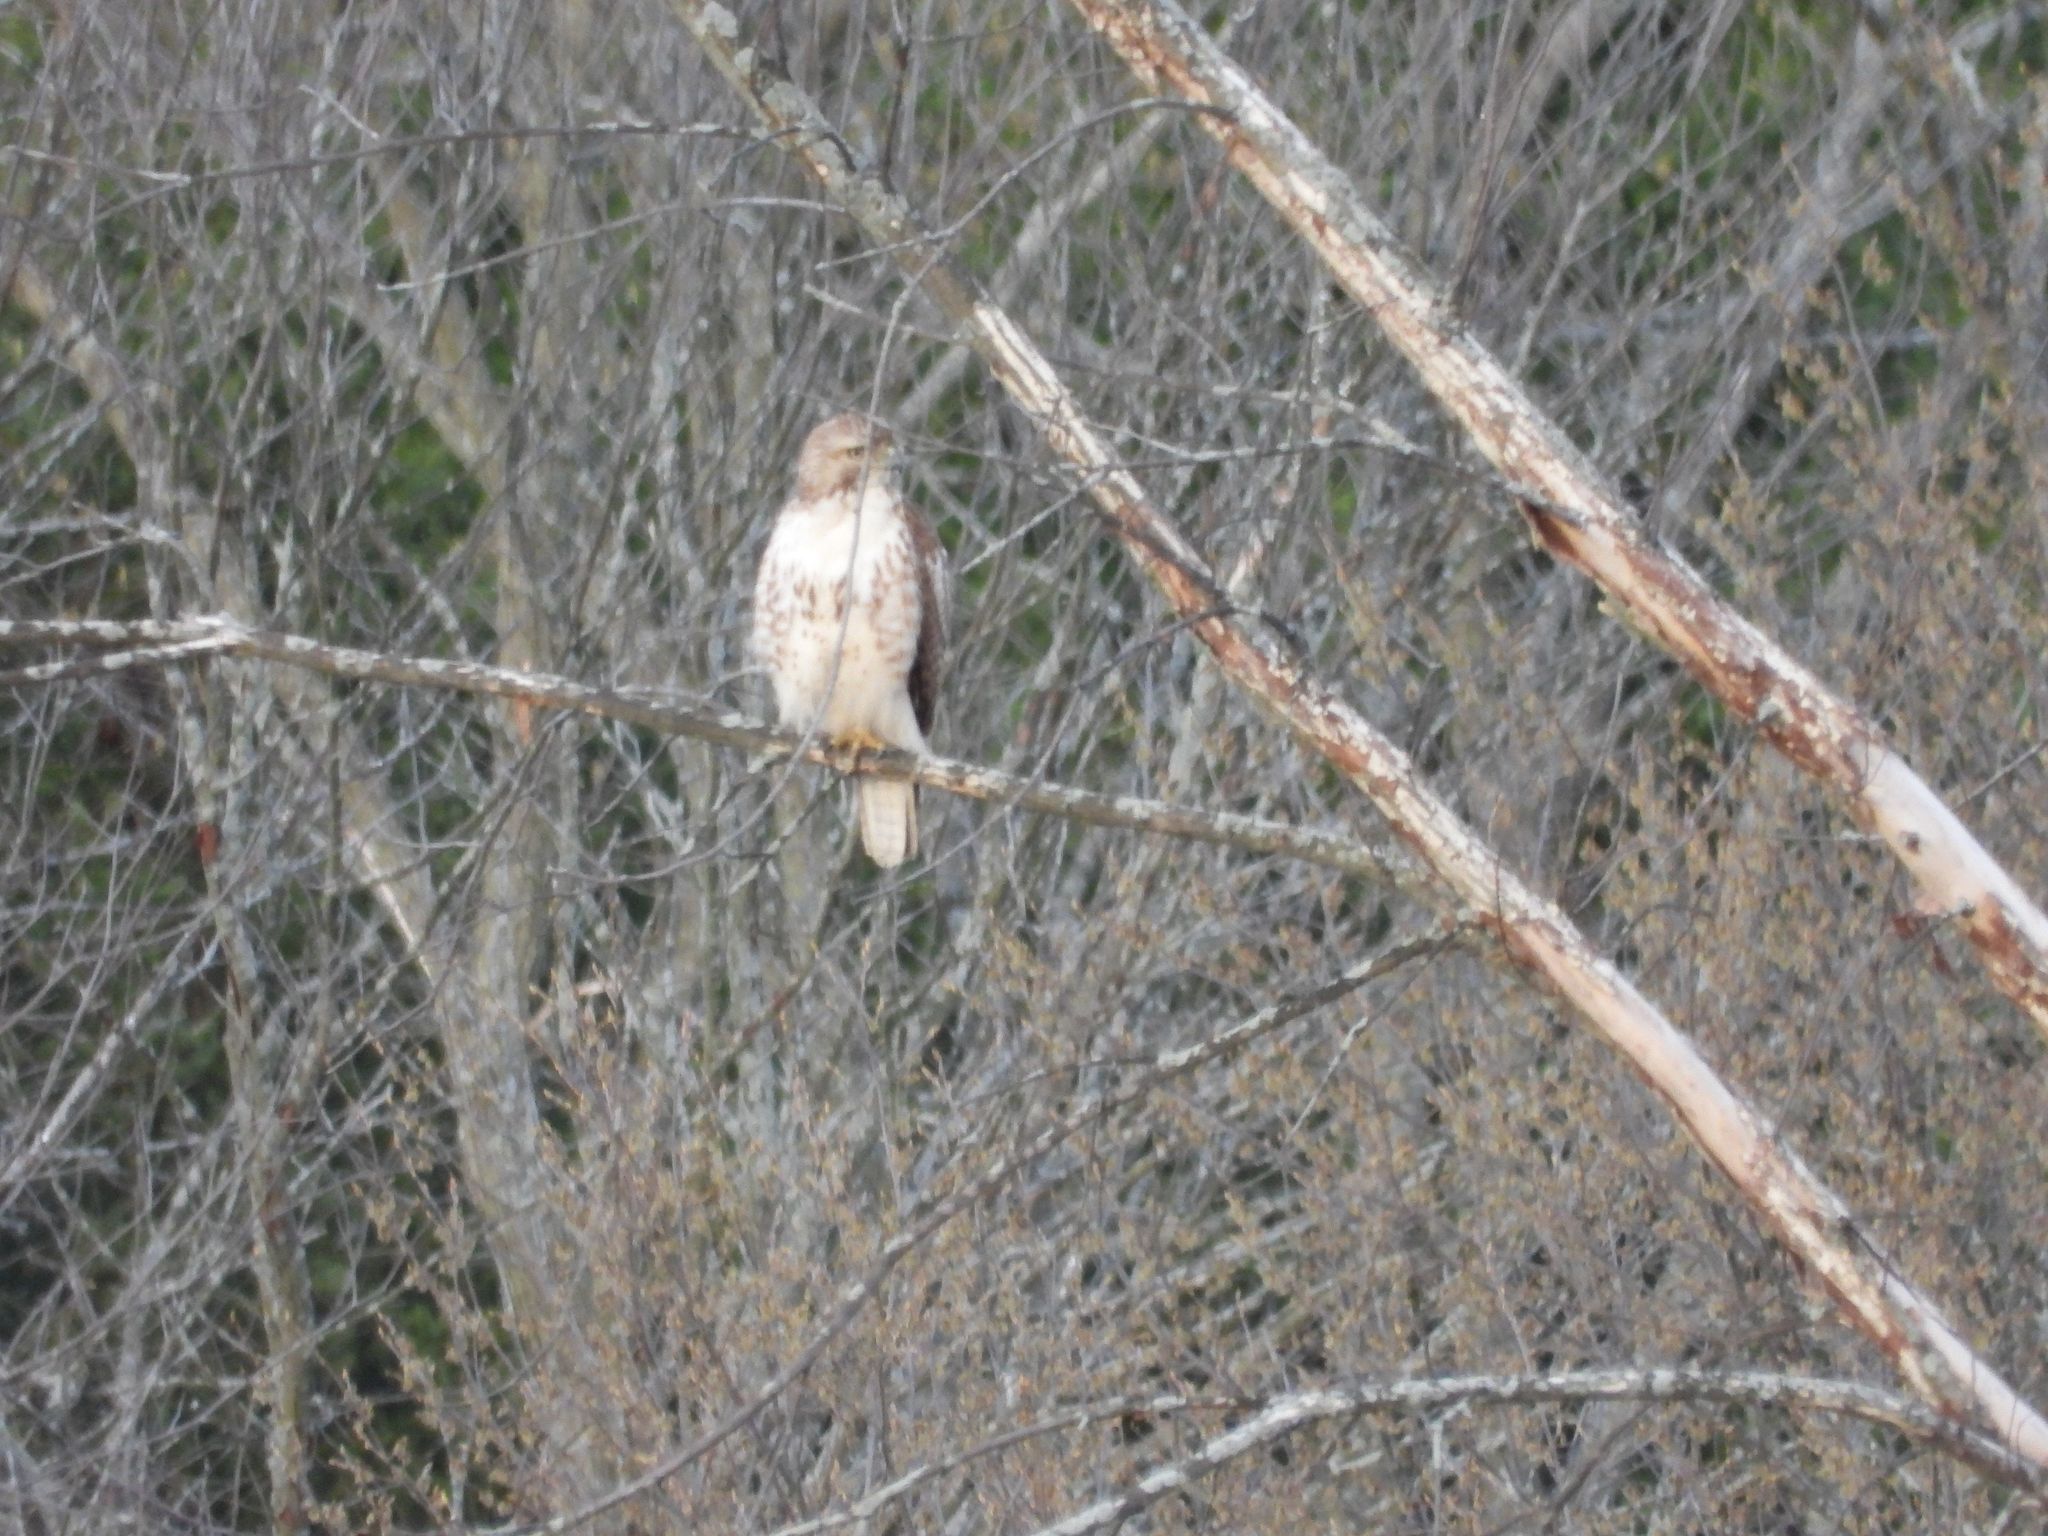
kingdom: Animalia
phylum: Chordata
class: Aves
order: Accipitriformes
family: Accipitridae
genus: Buteo
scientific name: Buteo jamaicensis
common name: Red-tailed hawk
